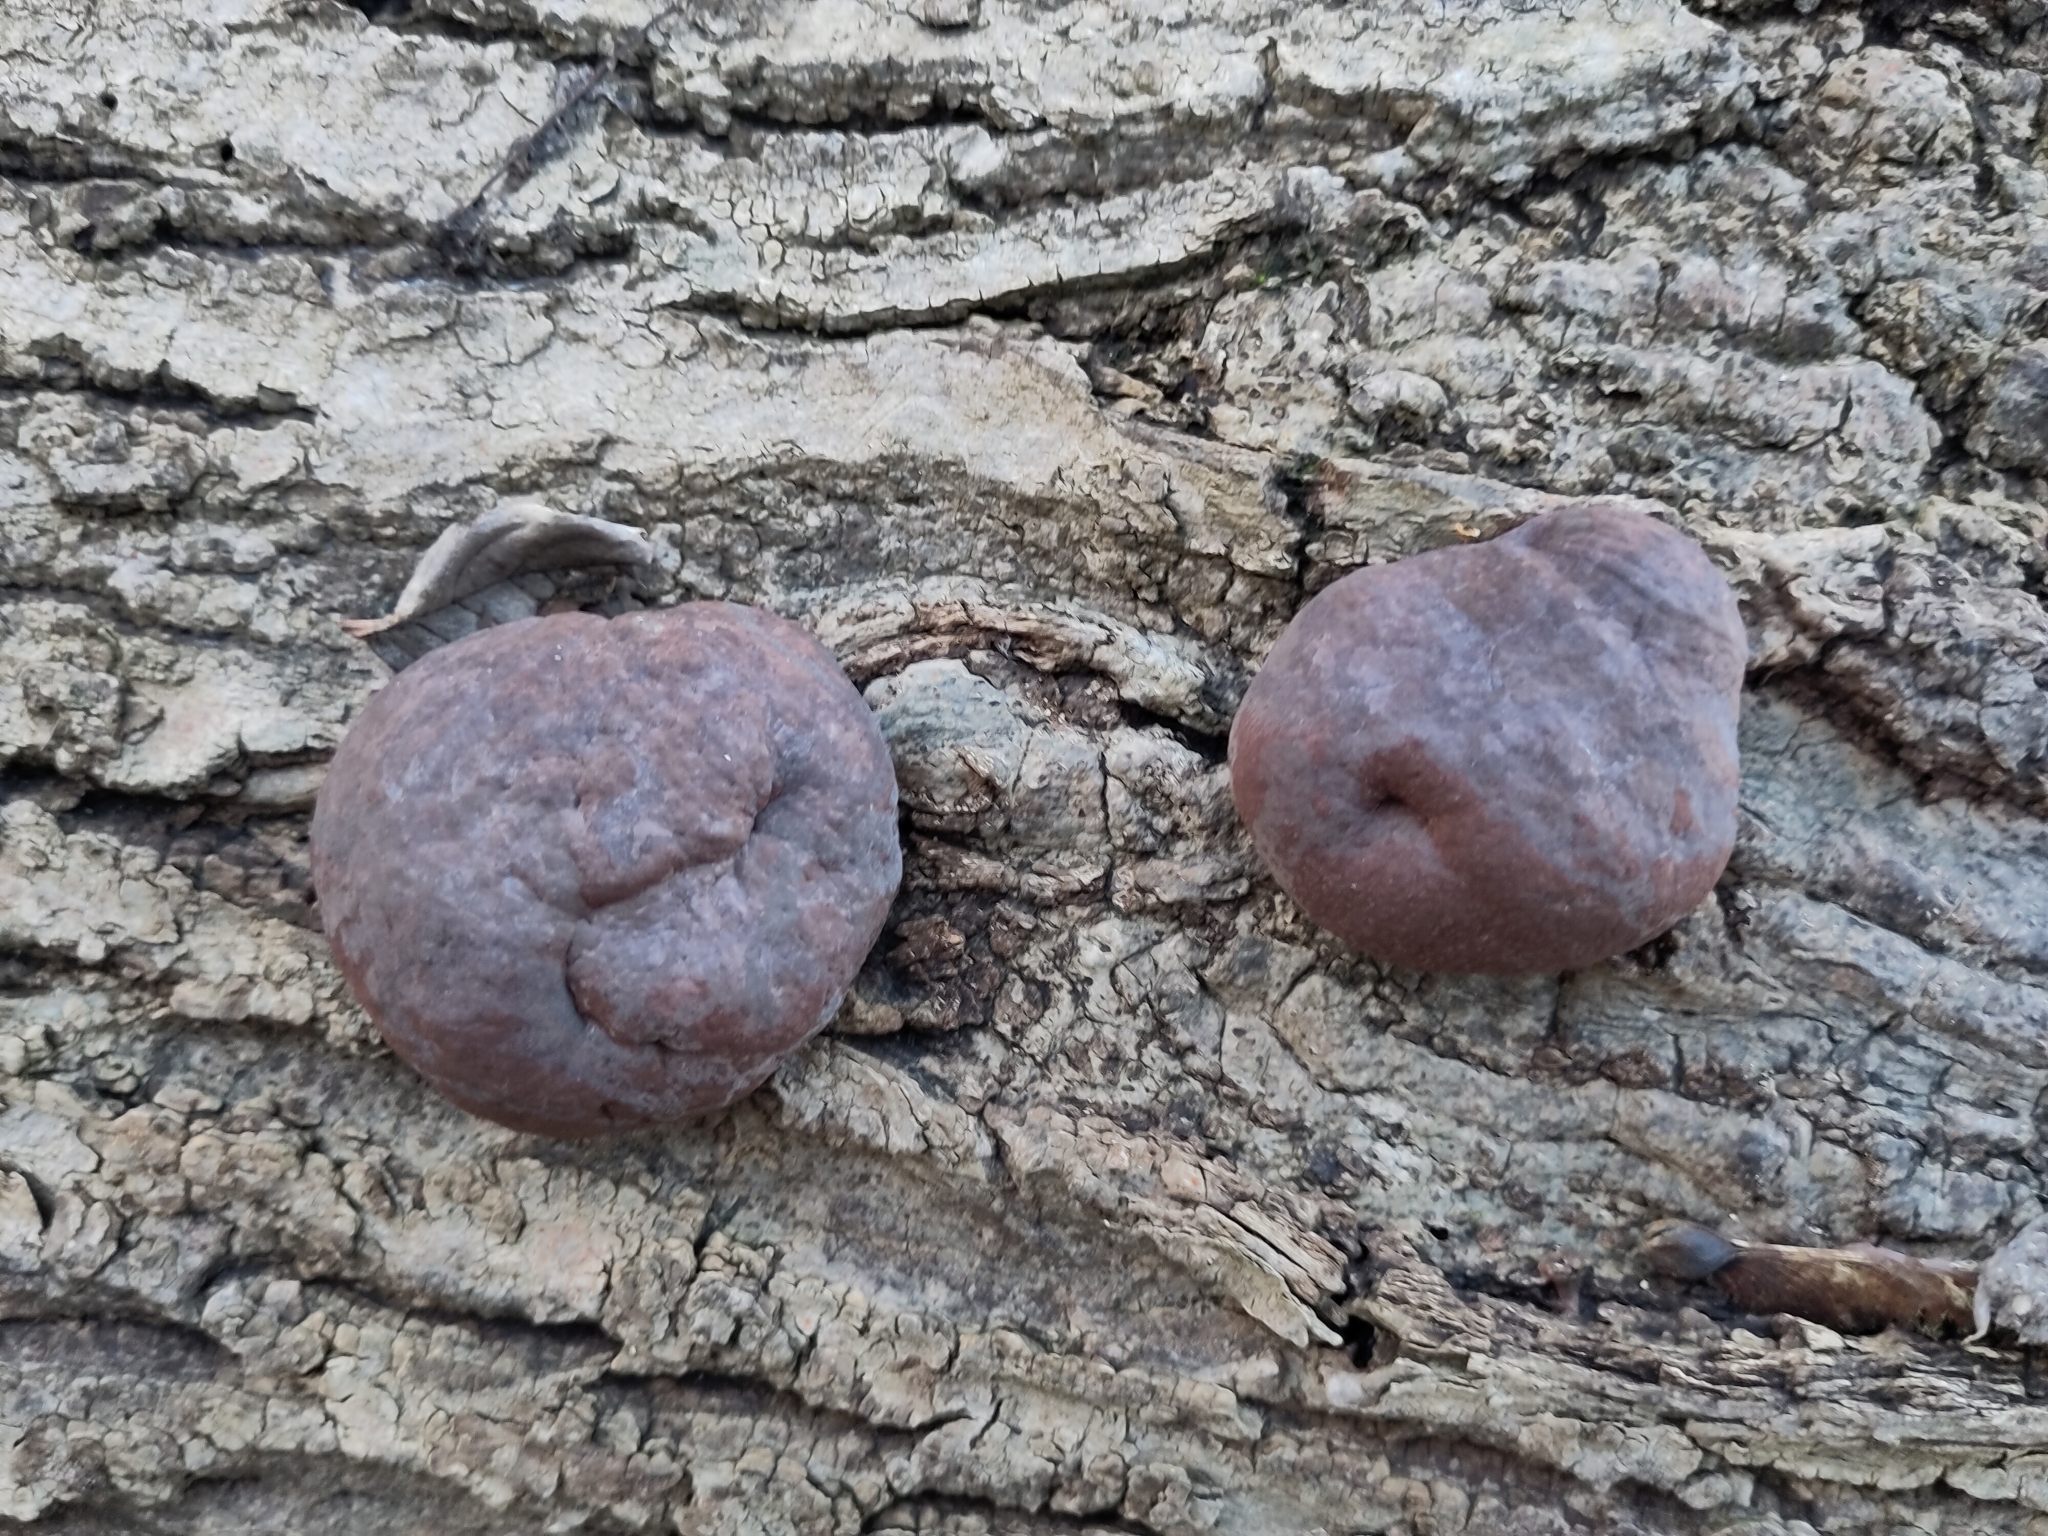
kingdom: Fungi
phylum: Ascomycota
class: Sordariomycetes
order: Xylariales
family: Hypoxylaceae
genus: Daldinia
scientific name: Daldinia concentrica
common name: Cramp balls
